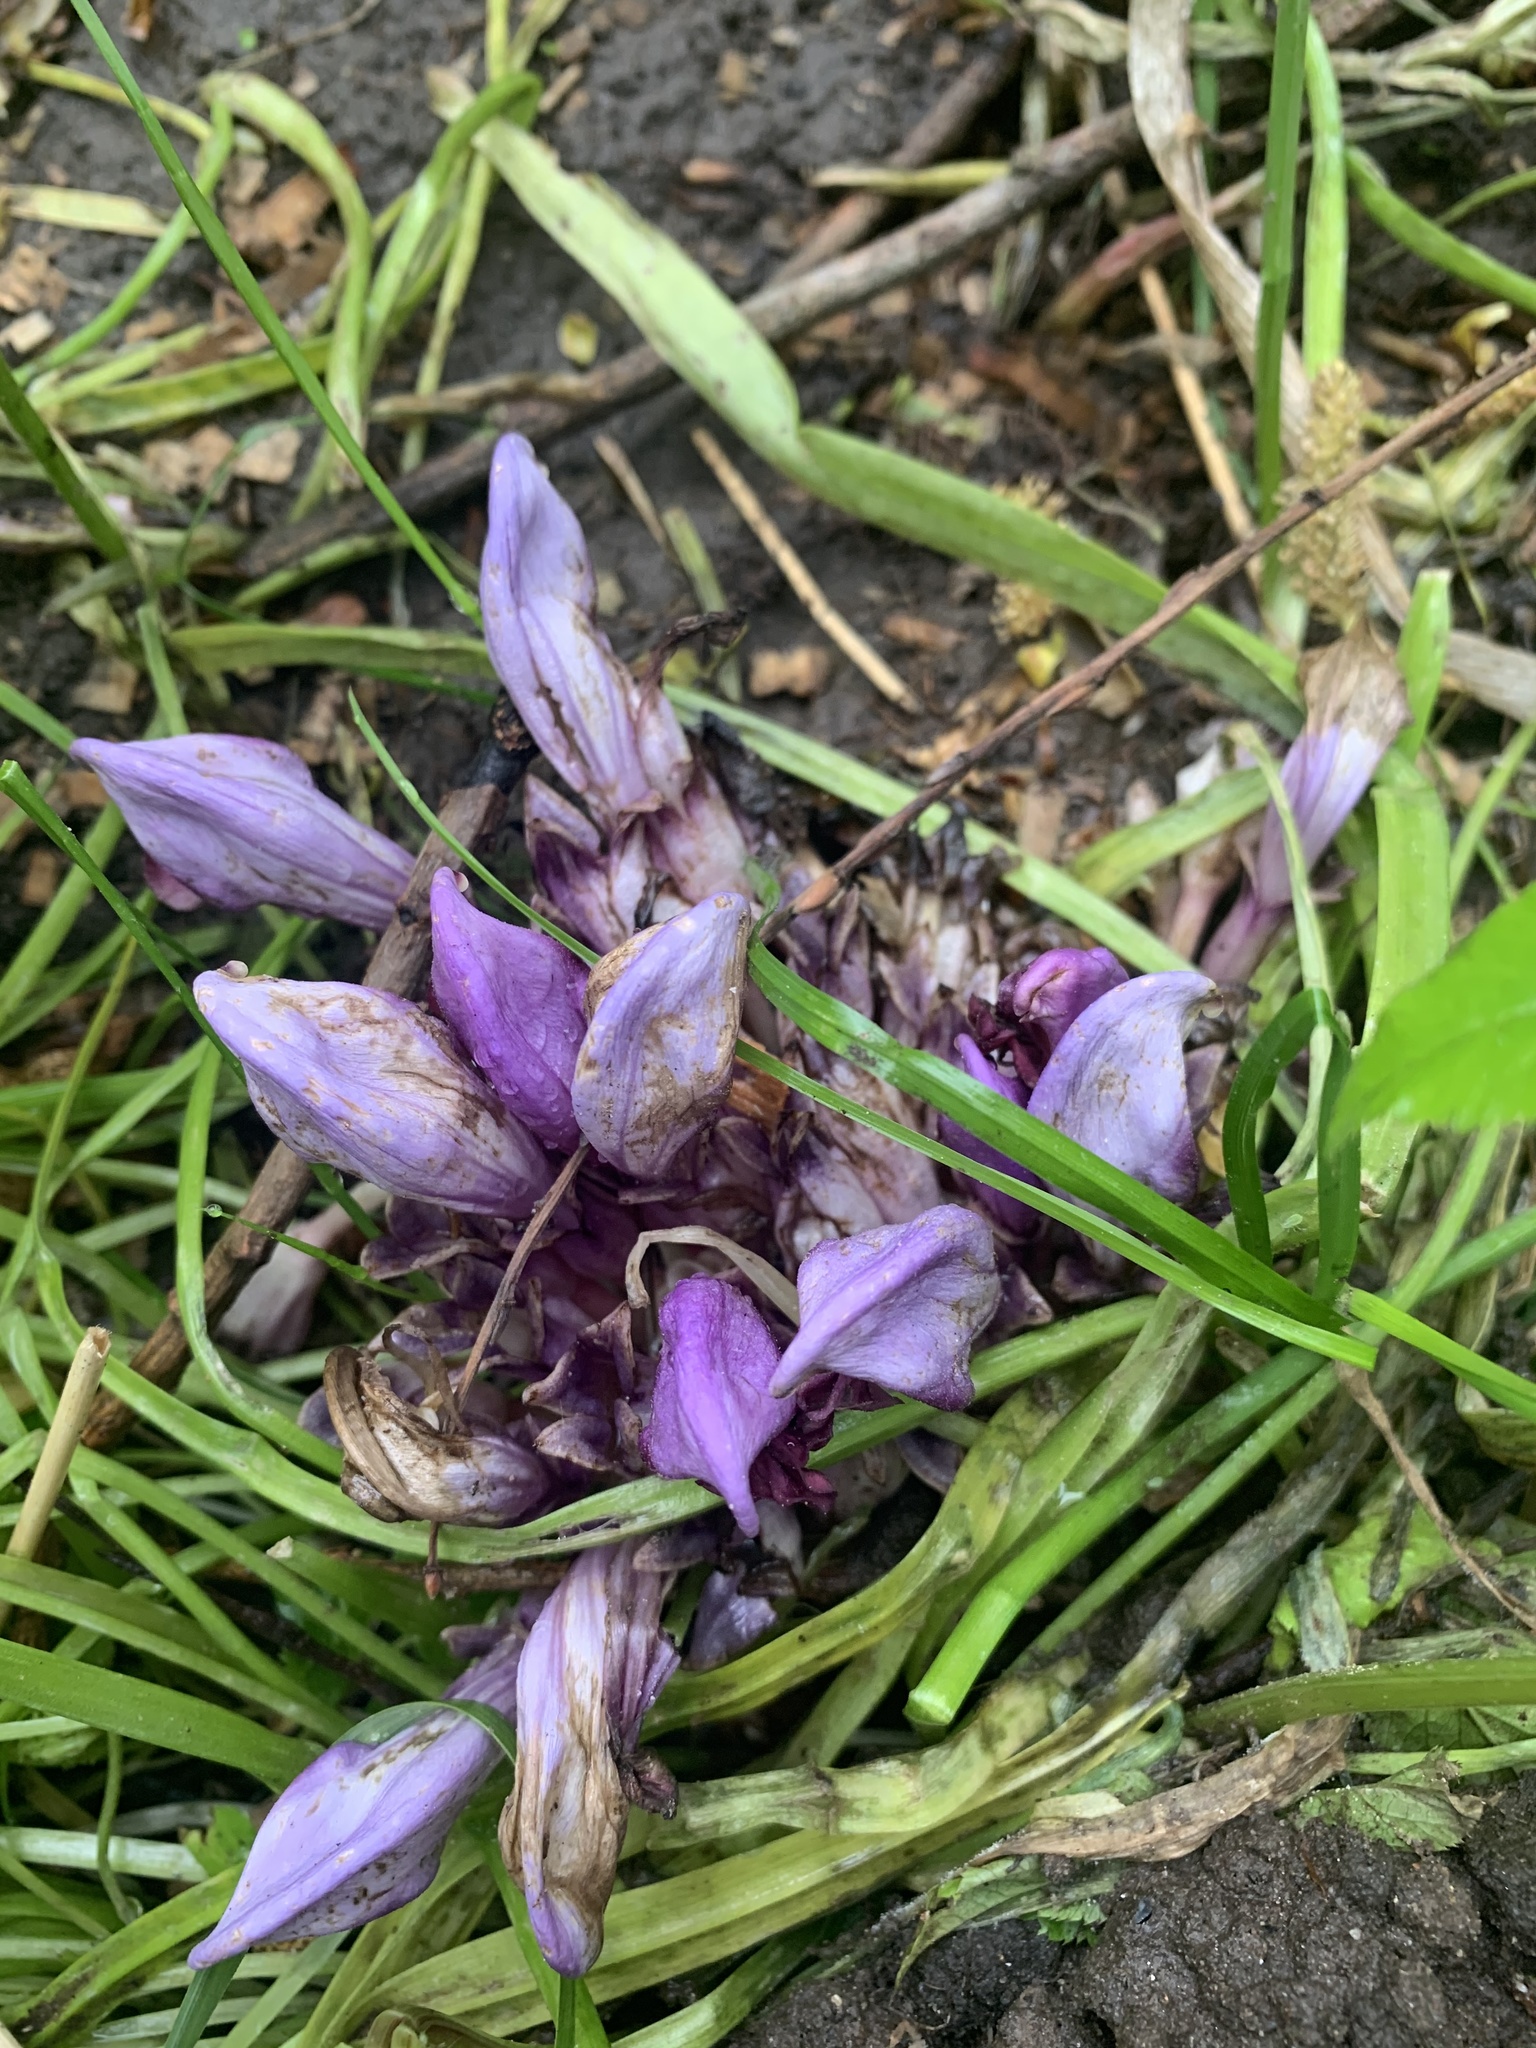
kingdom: Plantae
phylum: Tracheophyta
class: Magnoliopsida
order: Lamiales
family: Orobanchaceae
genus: Lathraea
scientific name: Lathraea clandestina
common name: Purple toothwort
